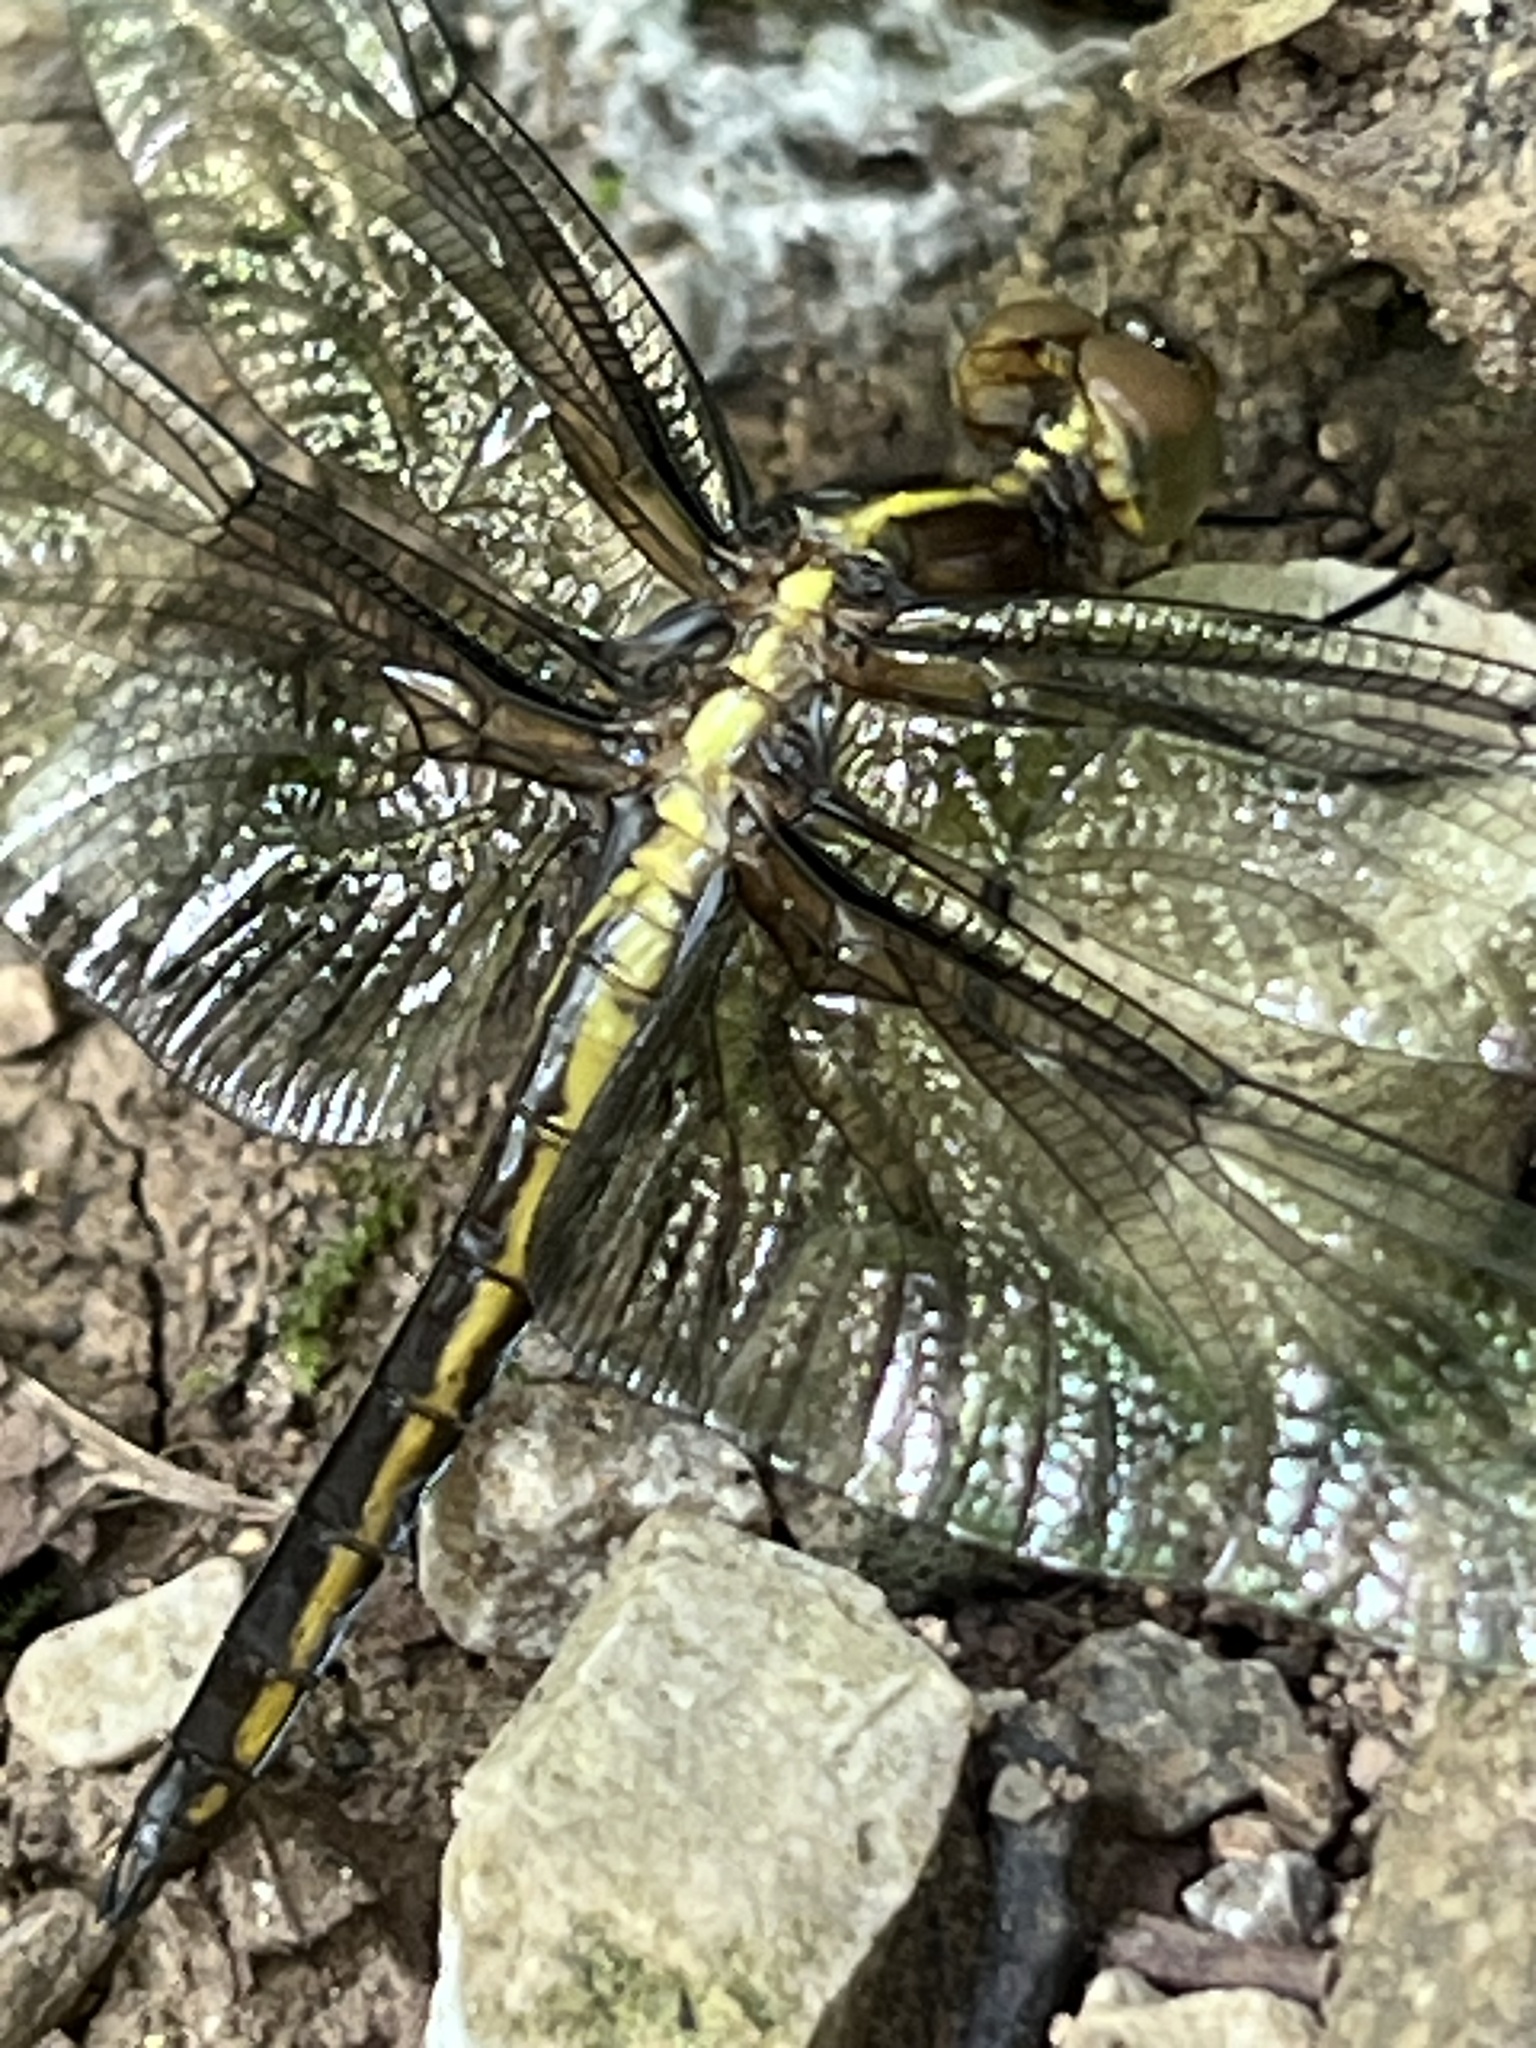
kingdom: Animalia
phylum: Arthropoda
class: Insecta
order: Odonata
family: Libellulidae
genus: Libellula
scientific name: Libellula luctuosa
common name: Widow skimmer
